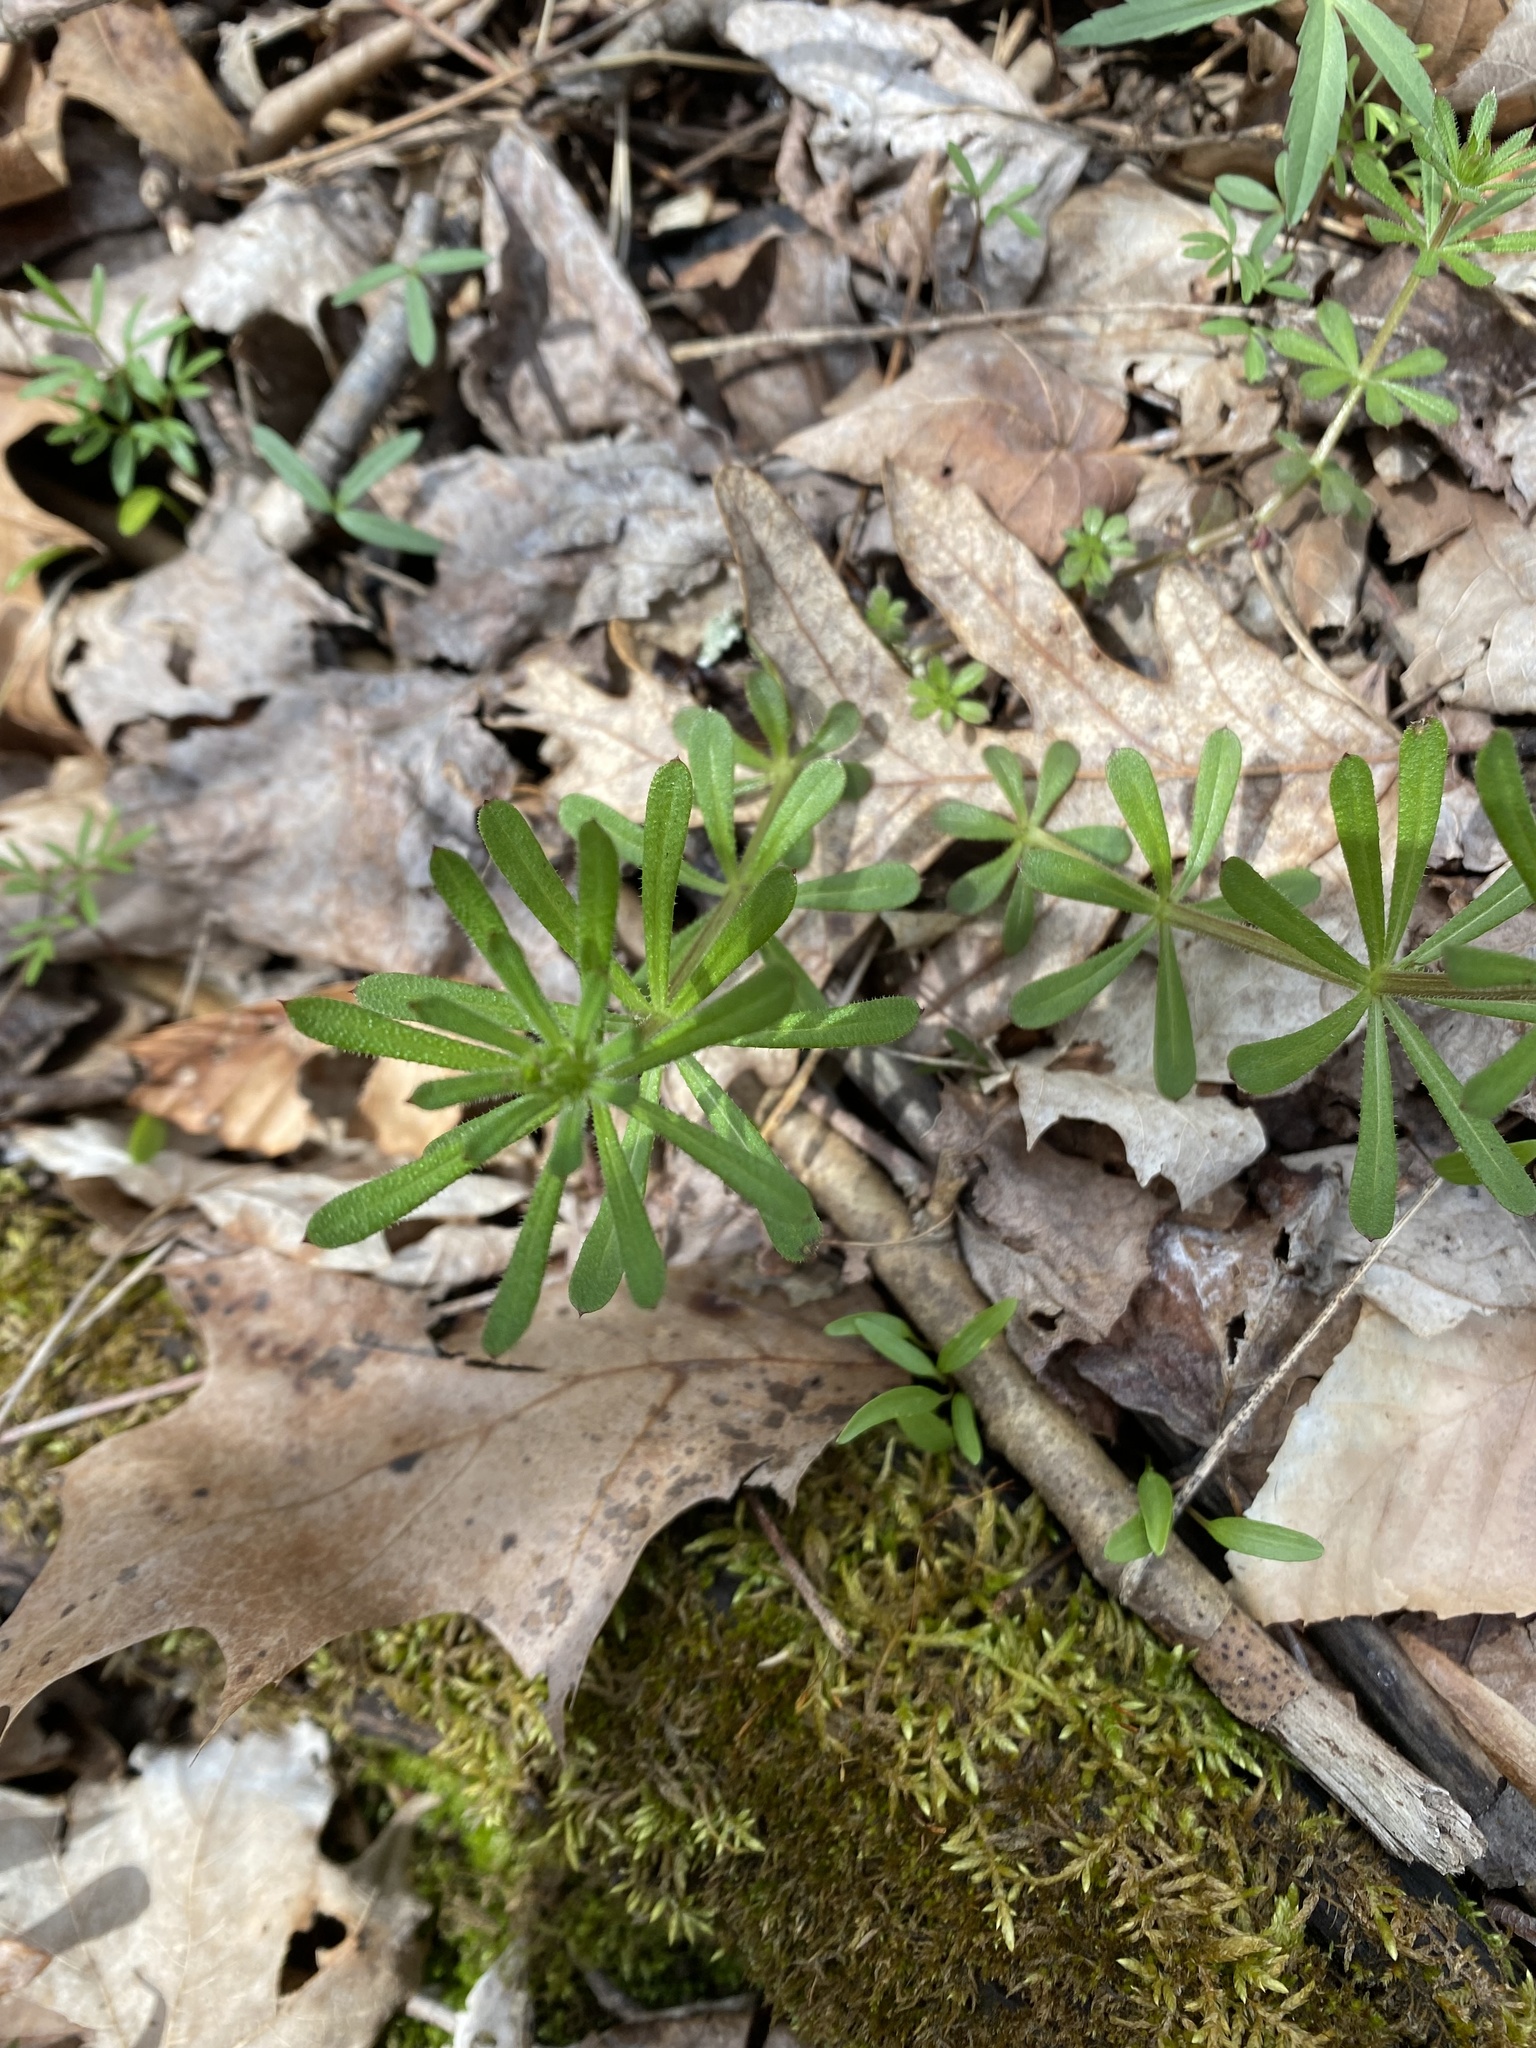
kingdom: Plantae
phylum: Tracheophyta
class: Magnoliopsida
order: Gentianales
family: Rubiaceae
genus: Galium
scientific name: Galium aparine
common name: Cleavers
